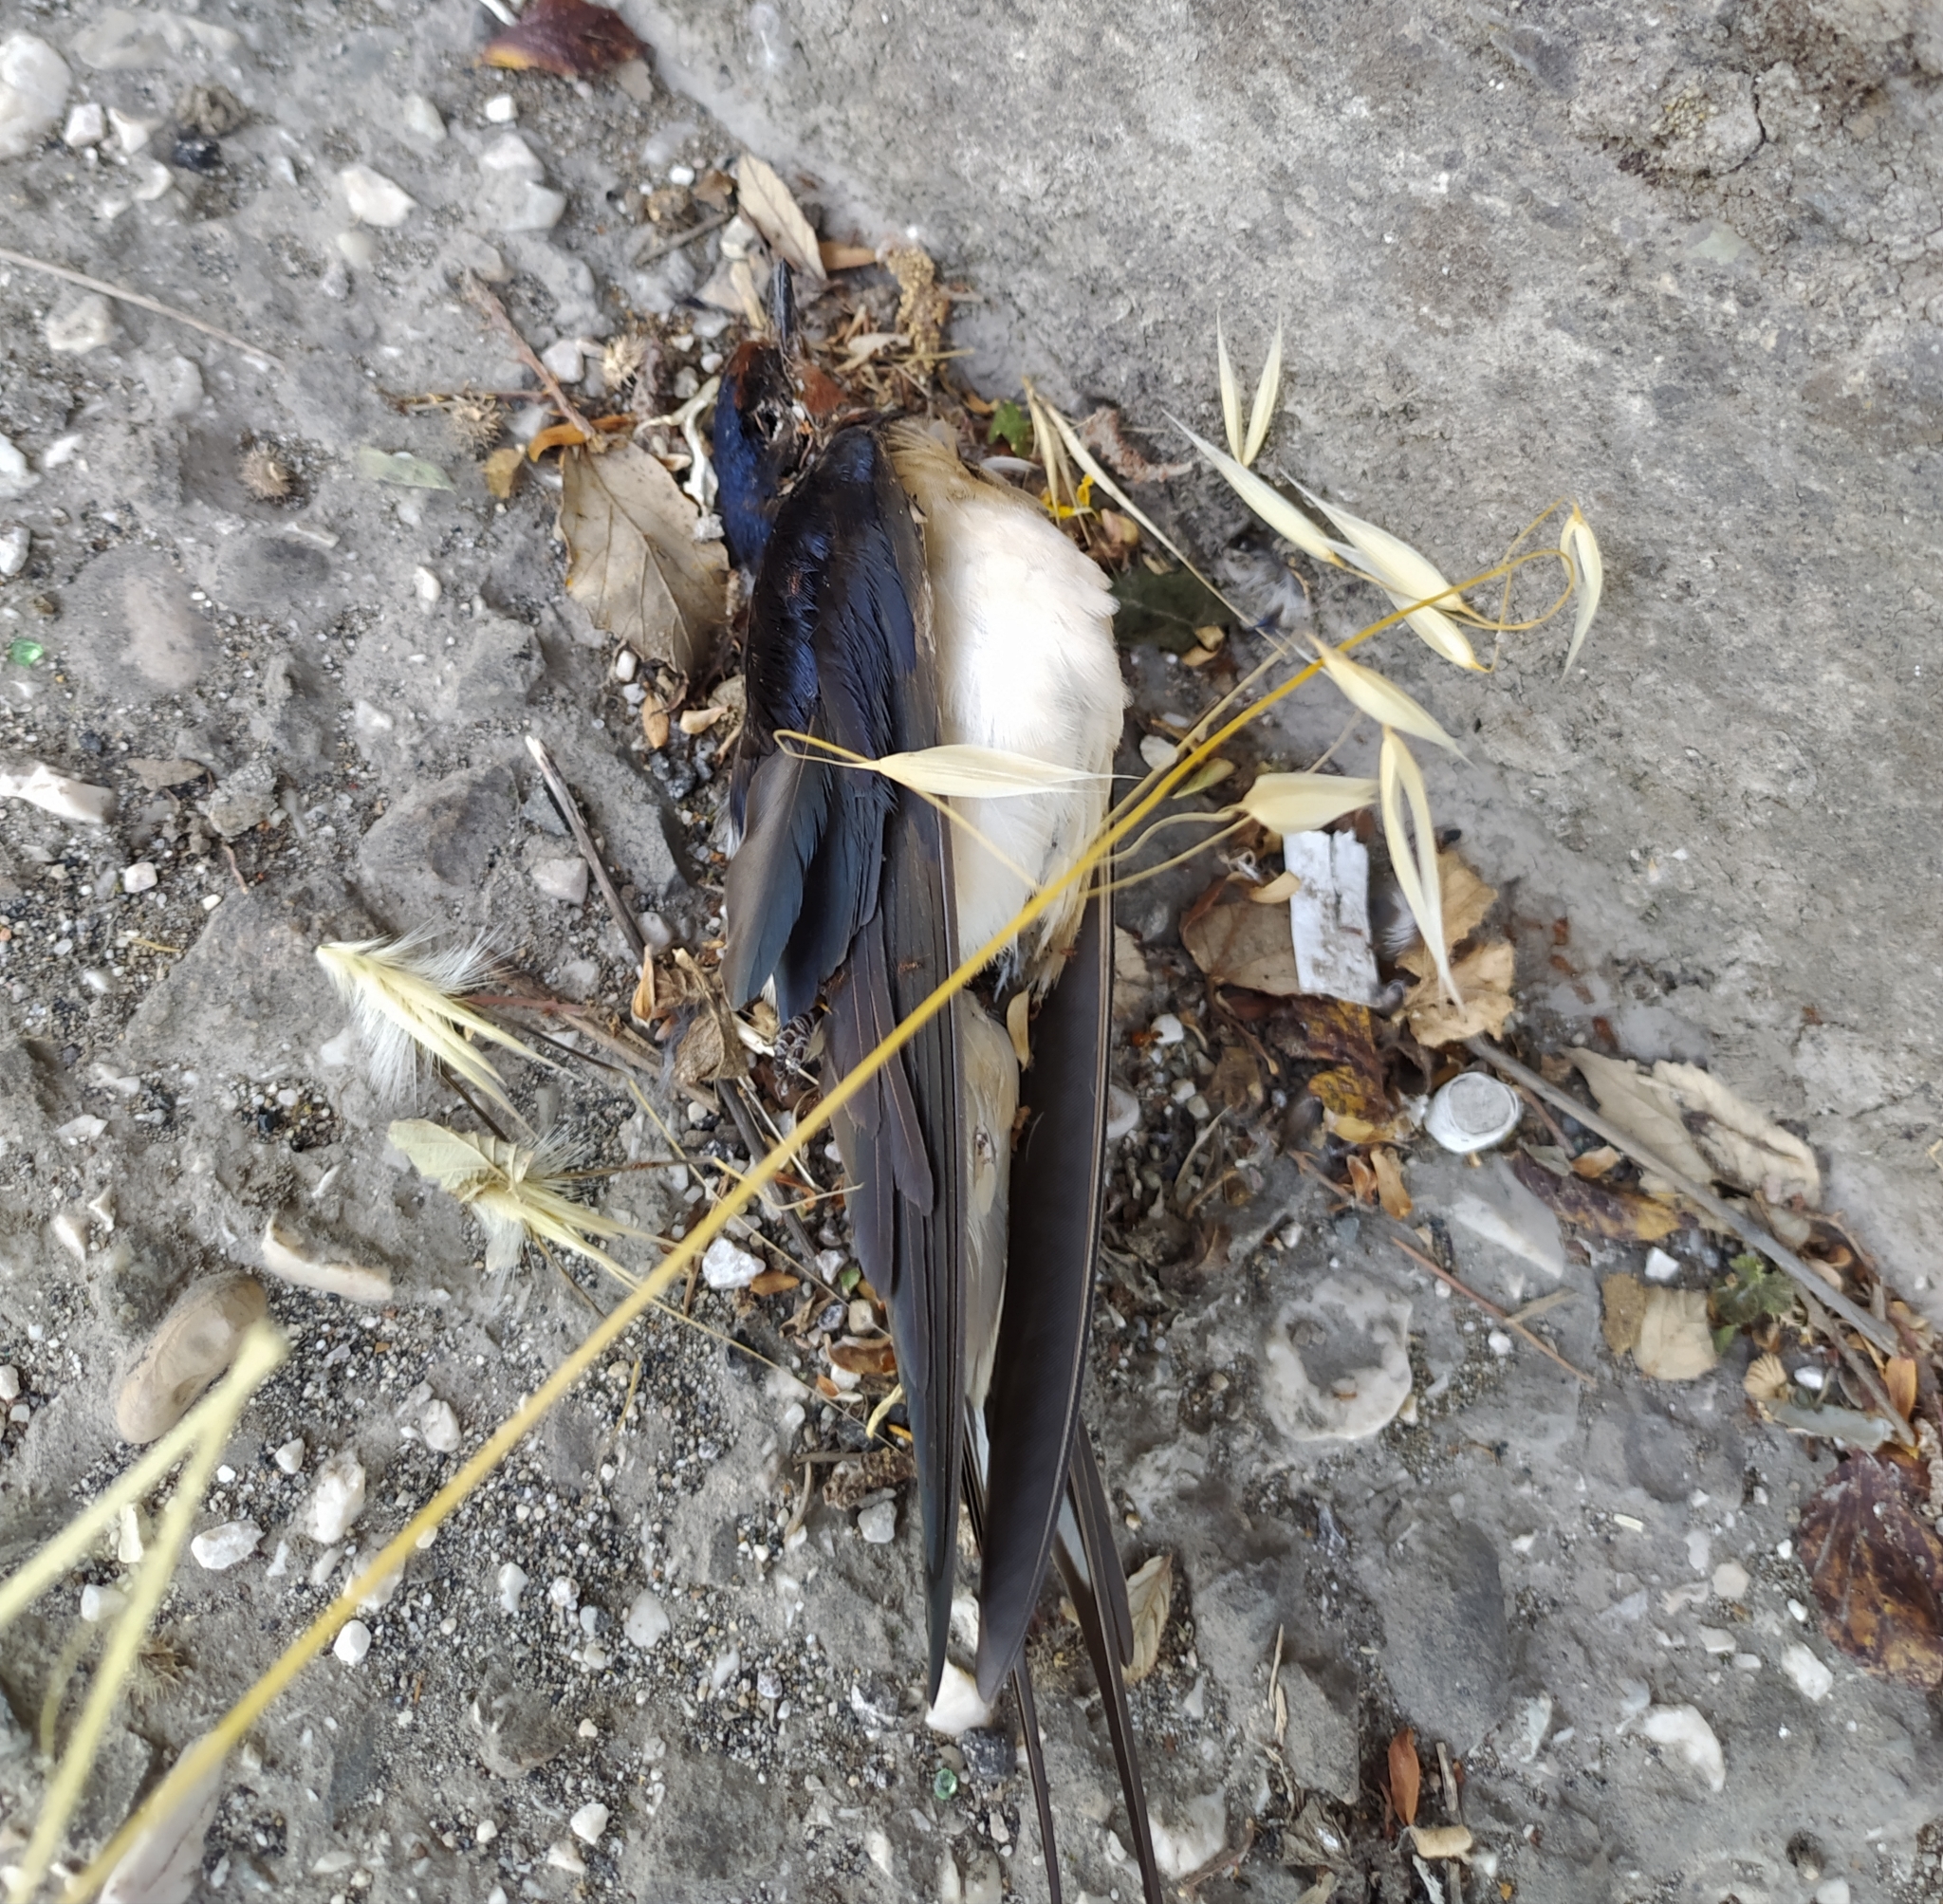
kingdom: Animalia
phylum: Chordata
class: Aves
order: Passeriformes
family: Hirundinidae
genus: Hirundo
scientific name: Hirundo rustica
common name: Barn swallow
